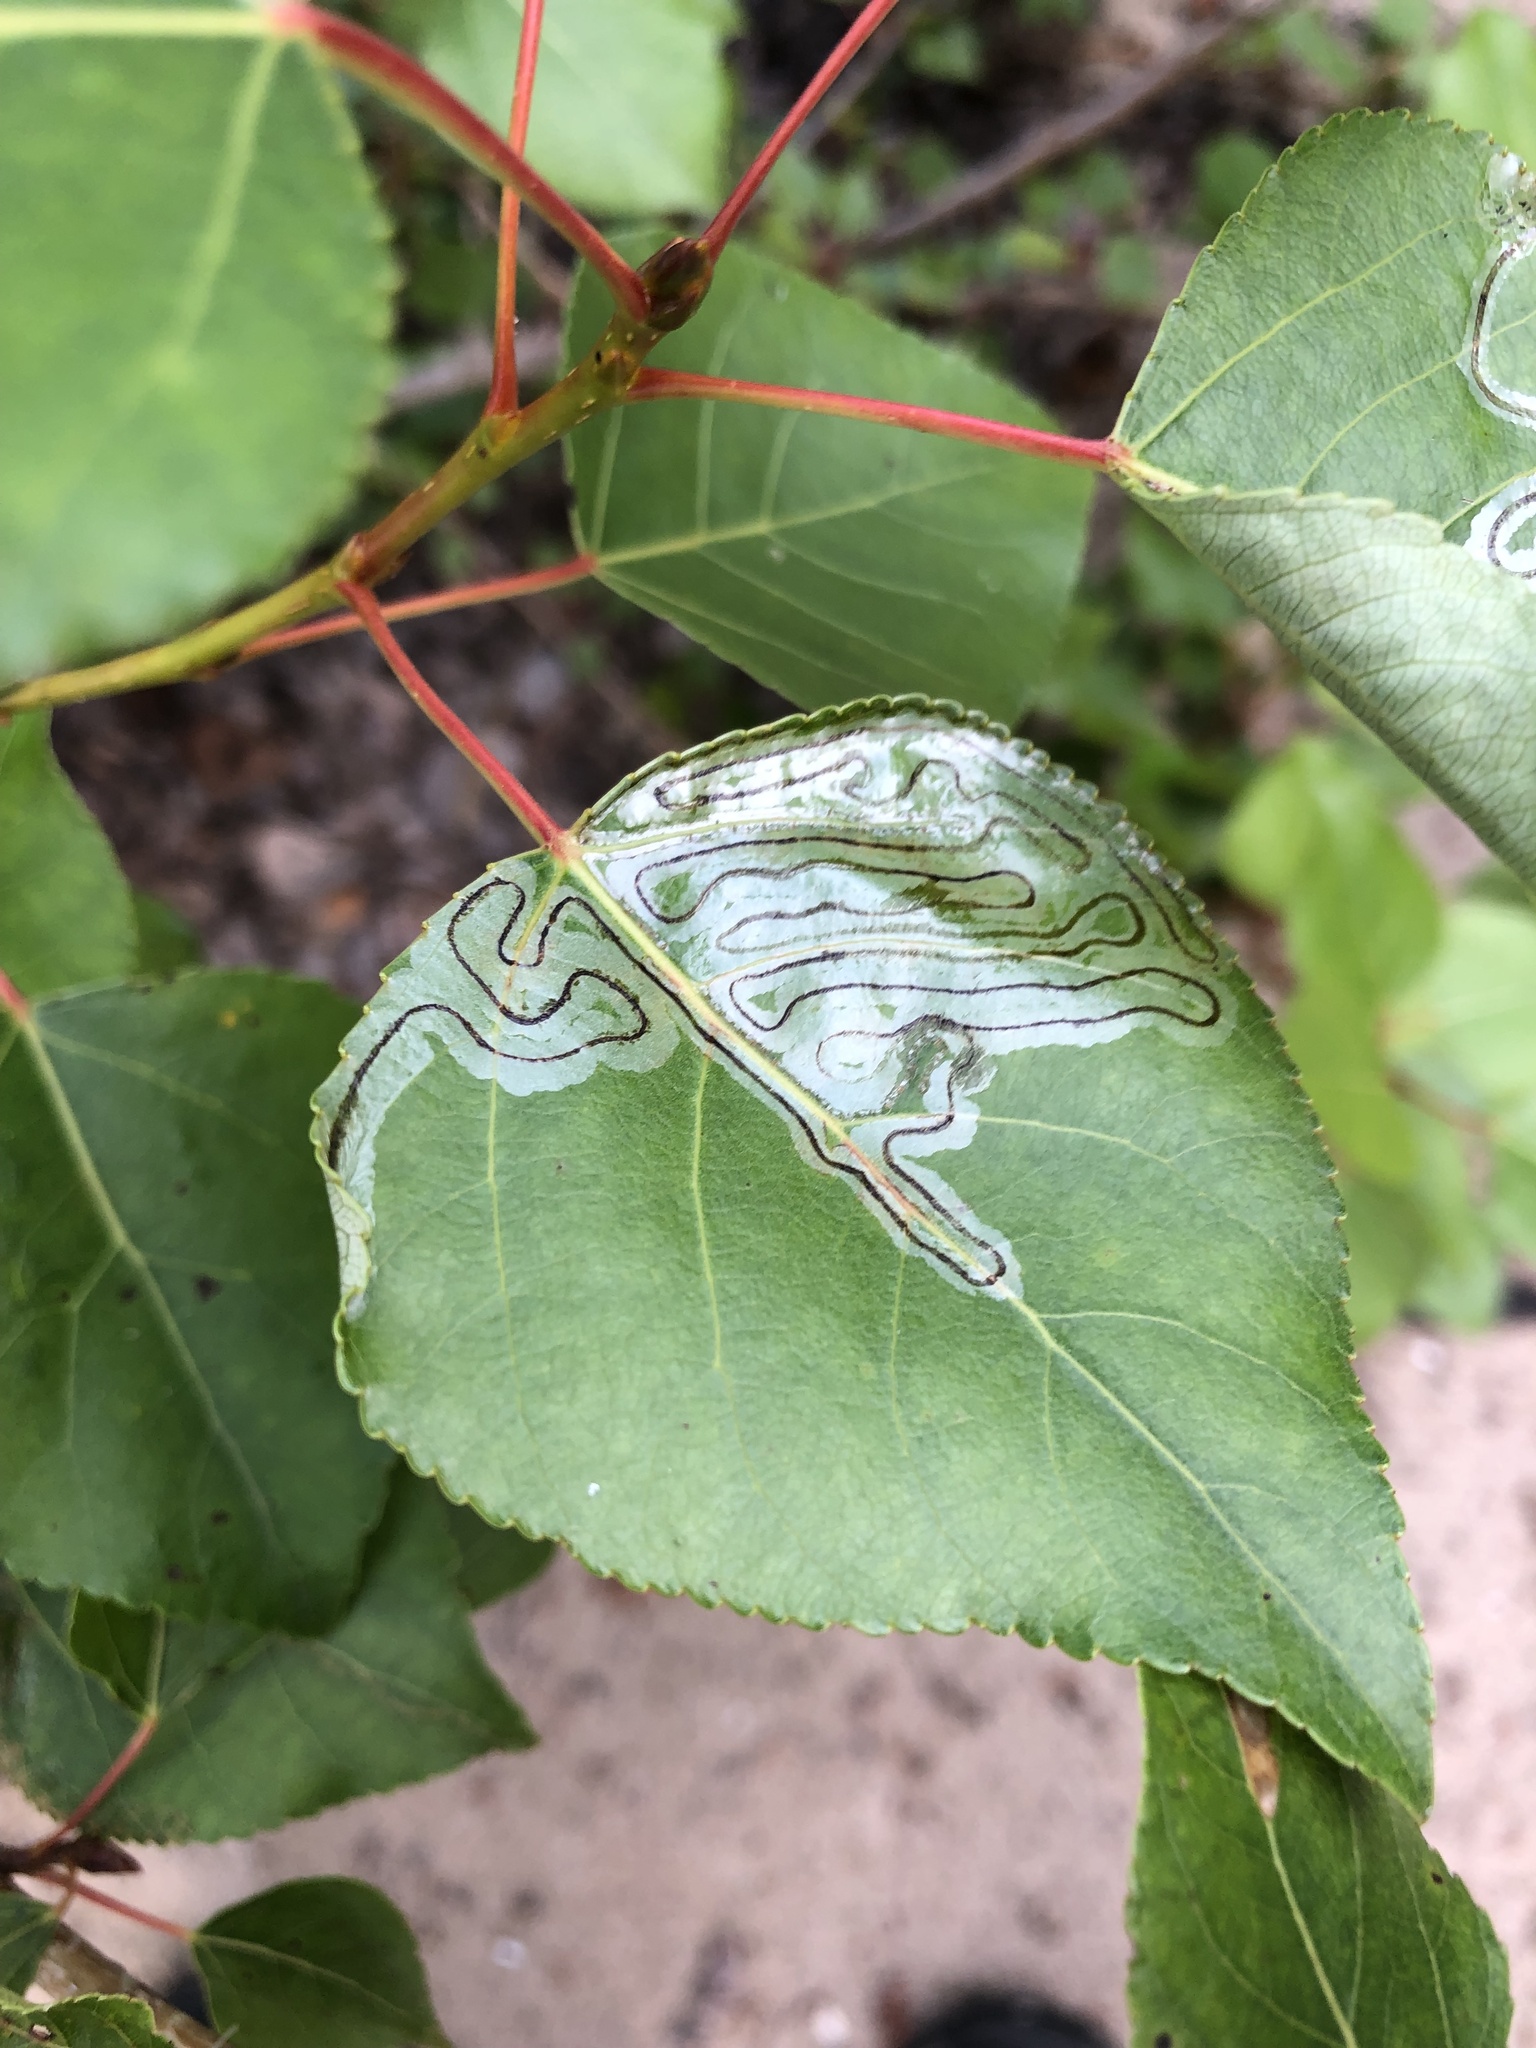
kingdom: Animalia
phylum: Arthropoda
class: Insecta
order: Lepidoptera
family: Gracillariidae
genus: Phyllocnistis
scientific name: Phyllocnistis populiella
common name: Aspen serpentine leafminer moth
